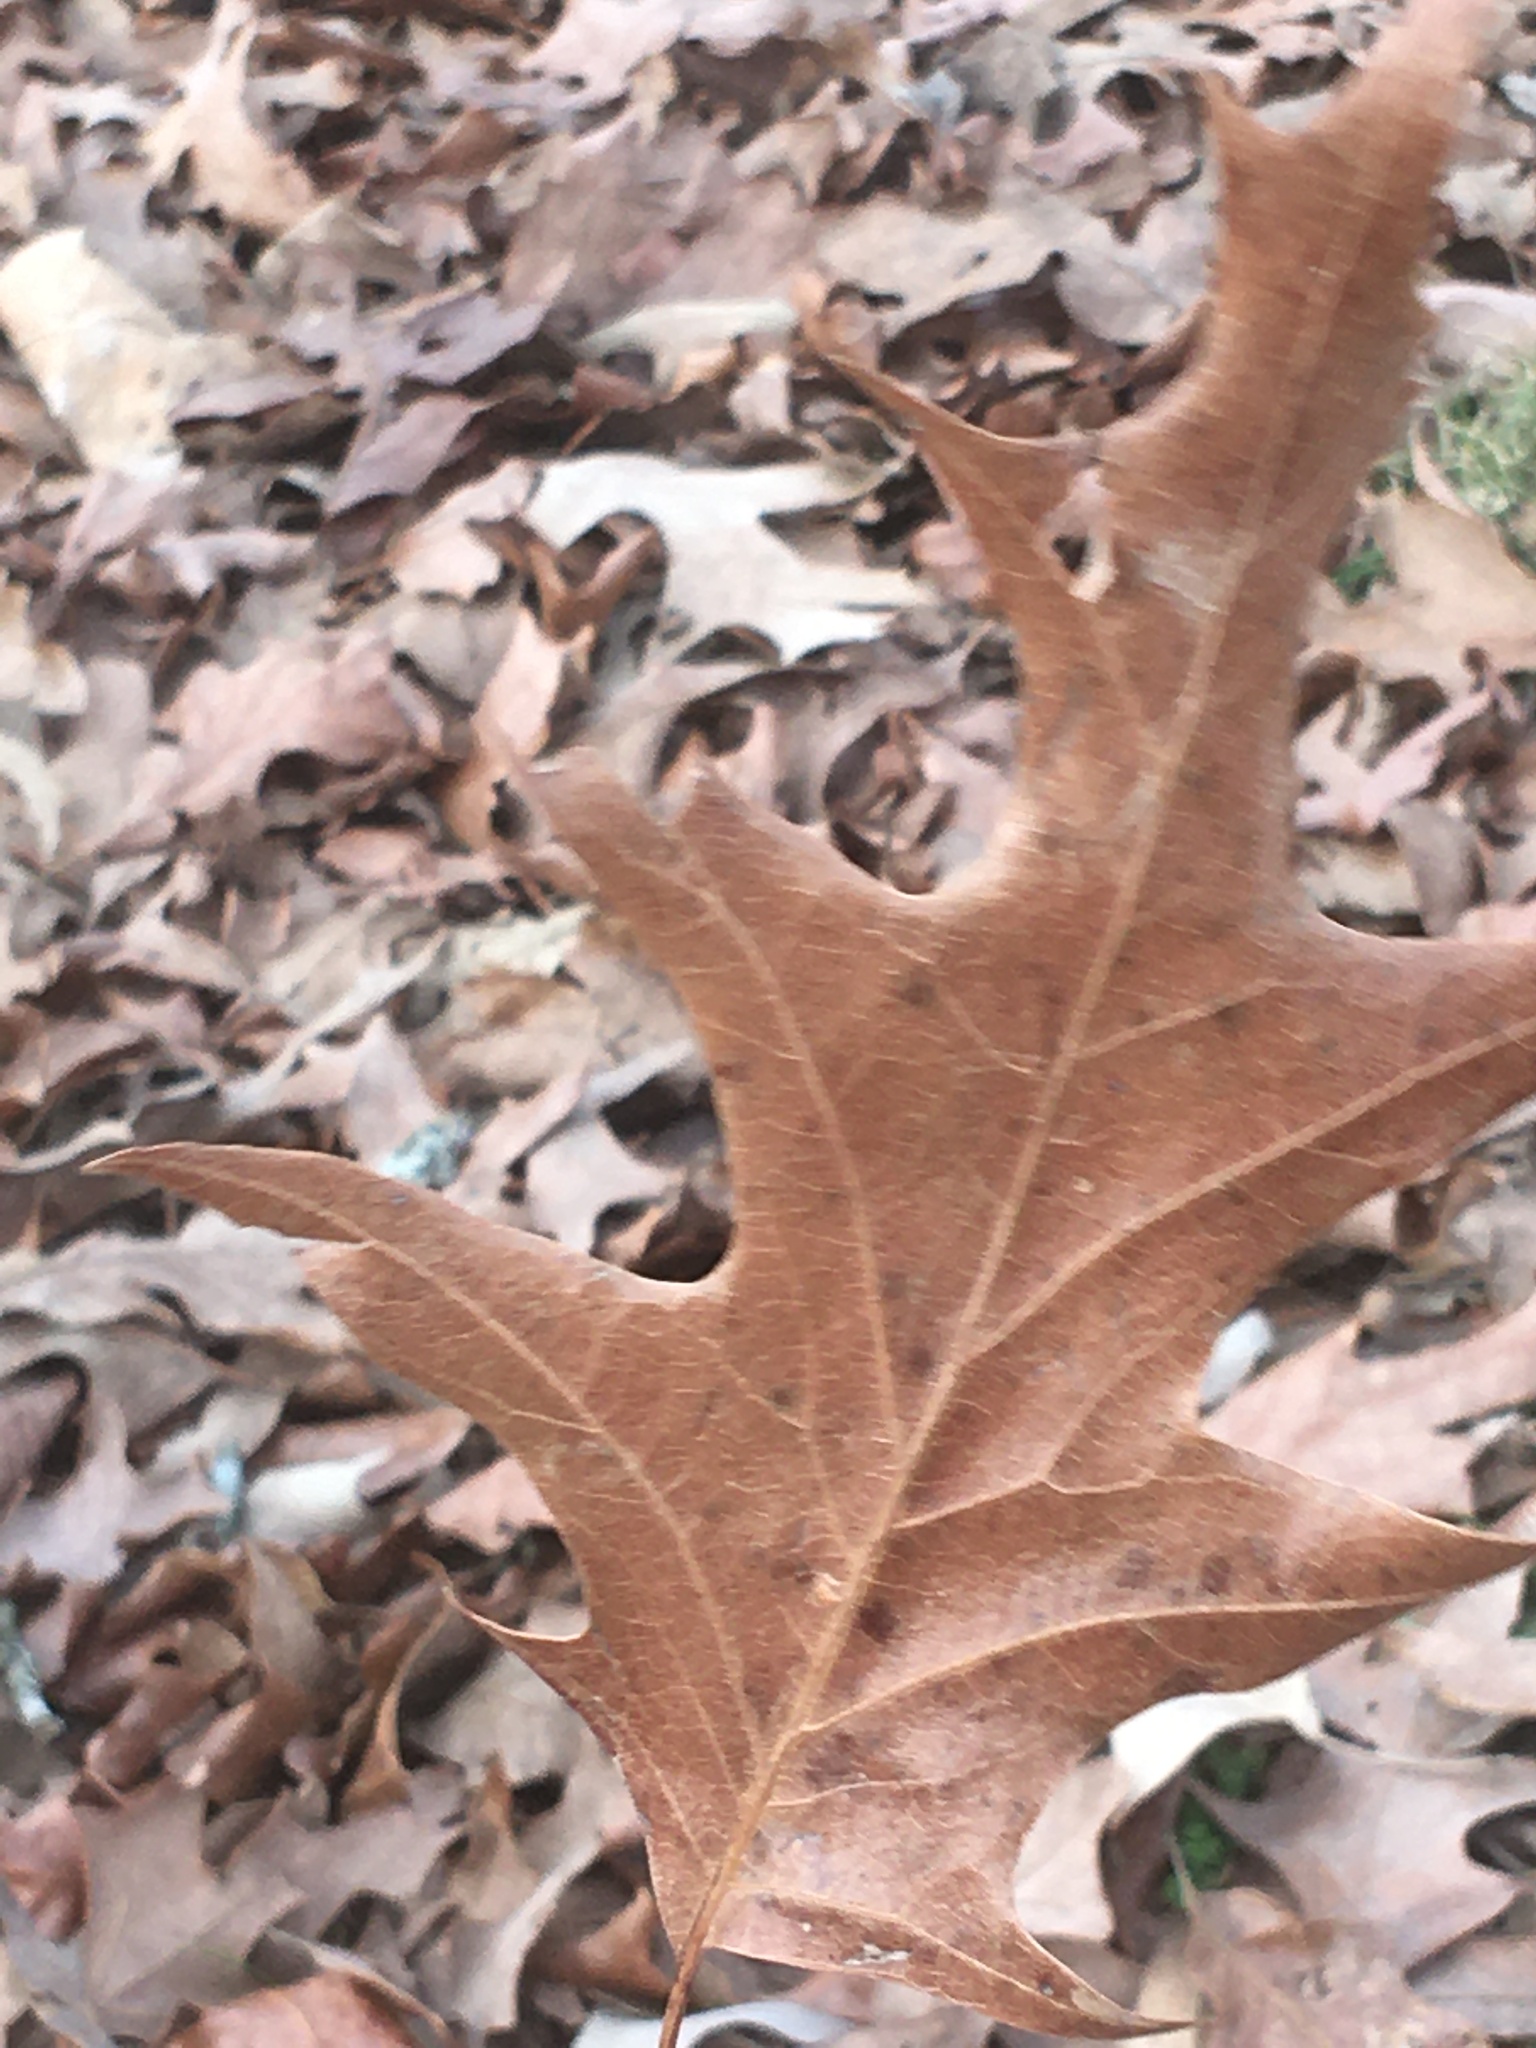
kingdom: Plantae
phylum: Tracheophyta
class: Magnoliopsida
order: Fagales
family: Fagaceae
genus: Quercus
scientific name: Quercus pagoda
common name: Cherrybark oak
